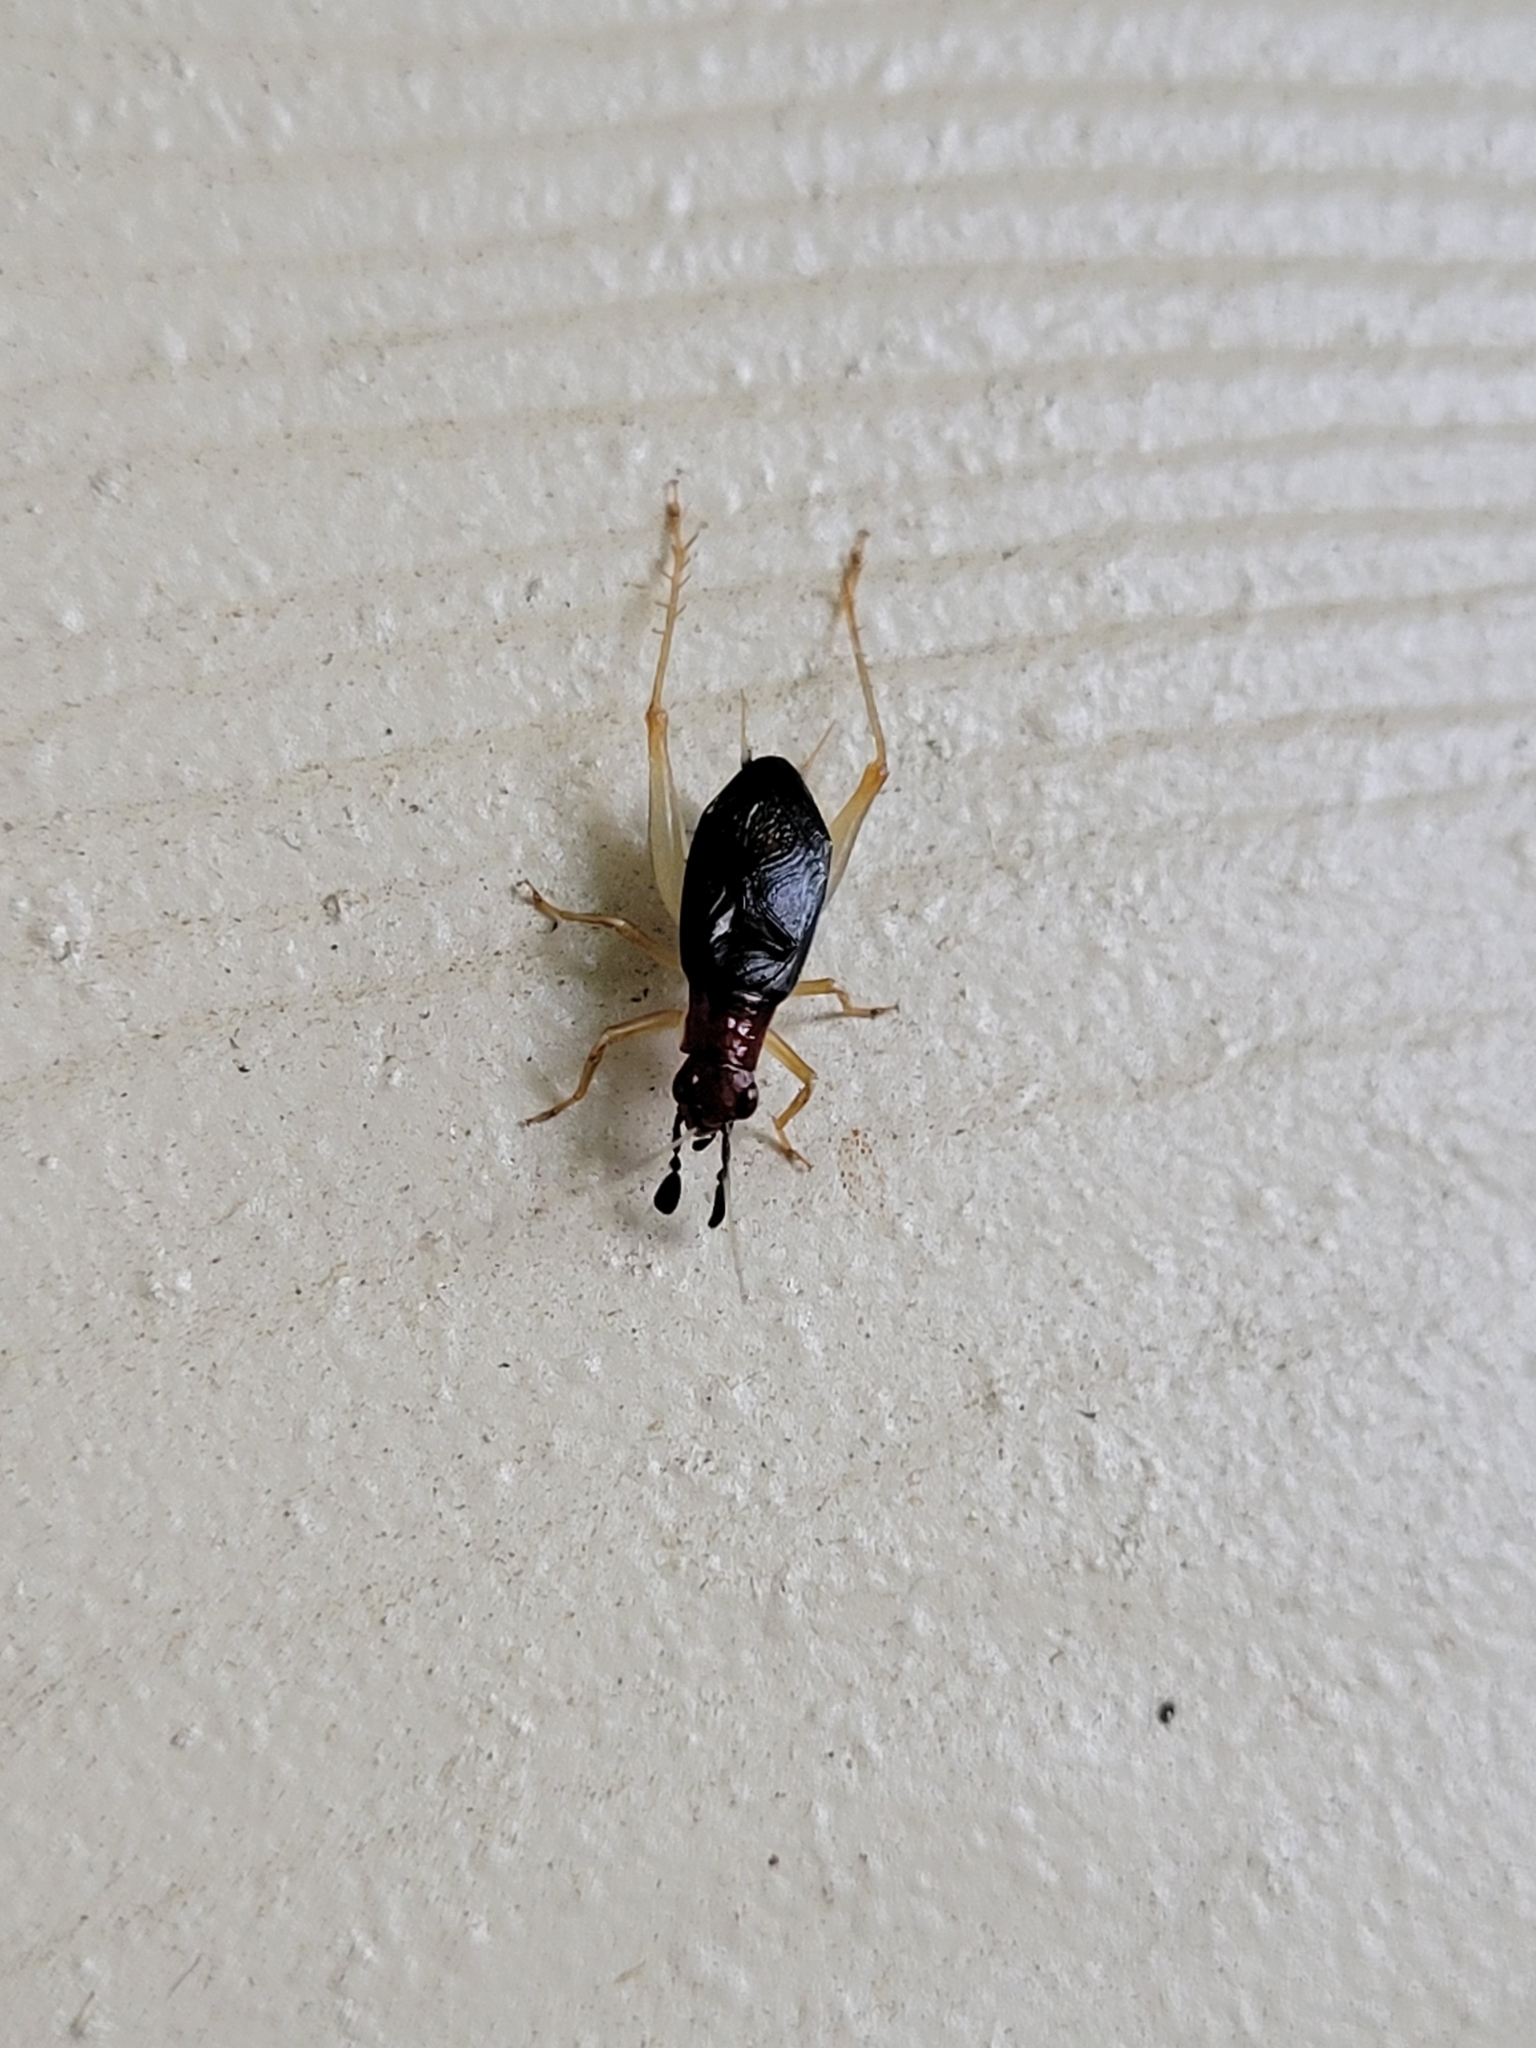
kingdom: Animalia
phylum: Arthropoda
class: Insecta
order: Orthoptera
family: Trigonidiidae
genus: Phyllopalpus
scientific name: Phyllopalpus pulchellus
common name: Handsome trig
